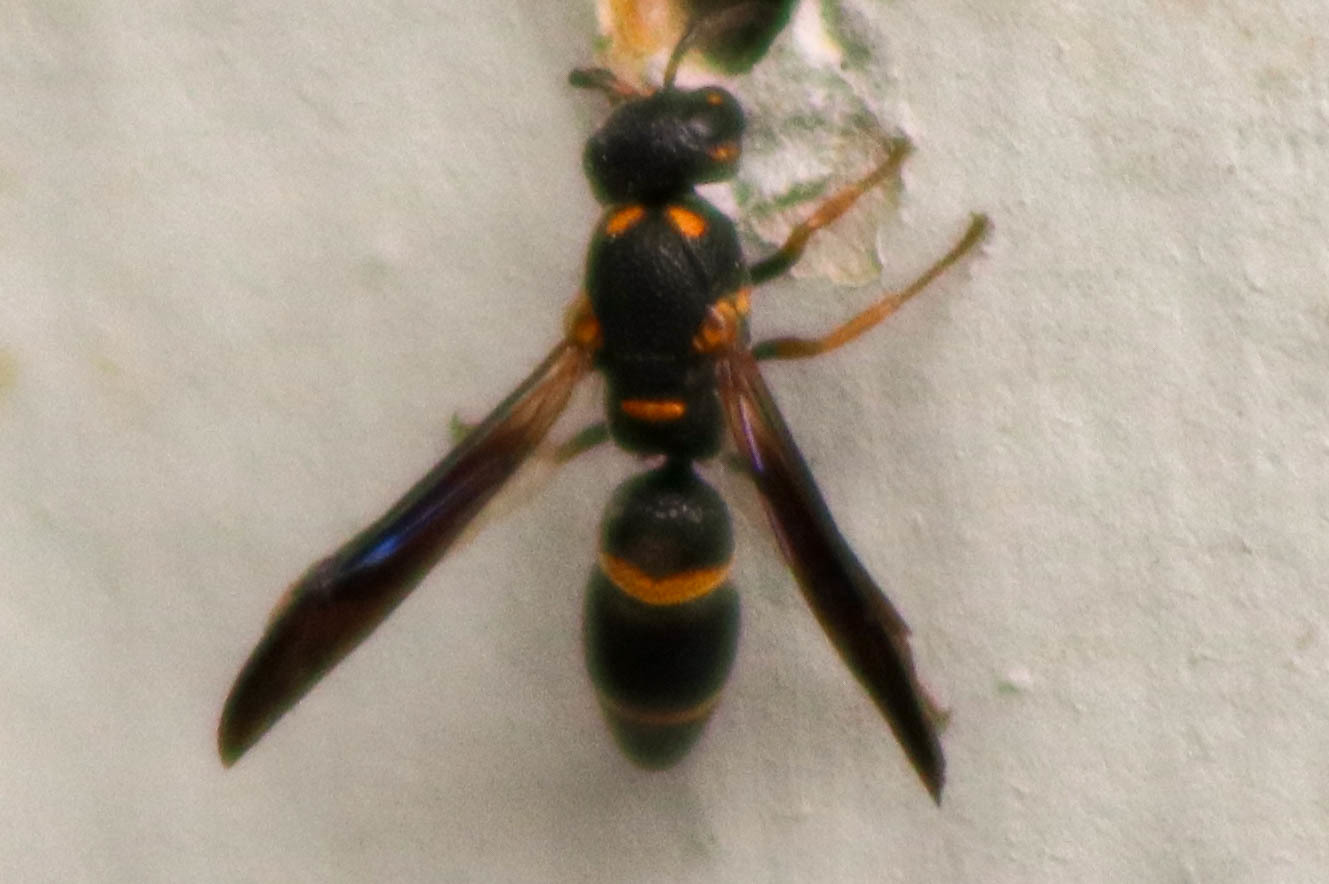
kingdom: Animalia
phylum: Arthropoda
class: Insecta
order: Hymenoptera
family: Eumenidae
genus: Parancistrocerus
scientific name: Parancistrocerus
